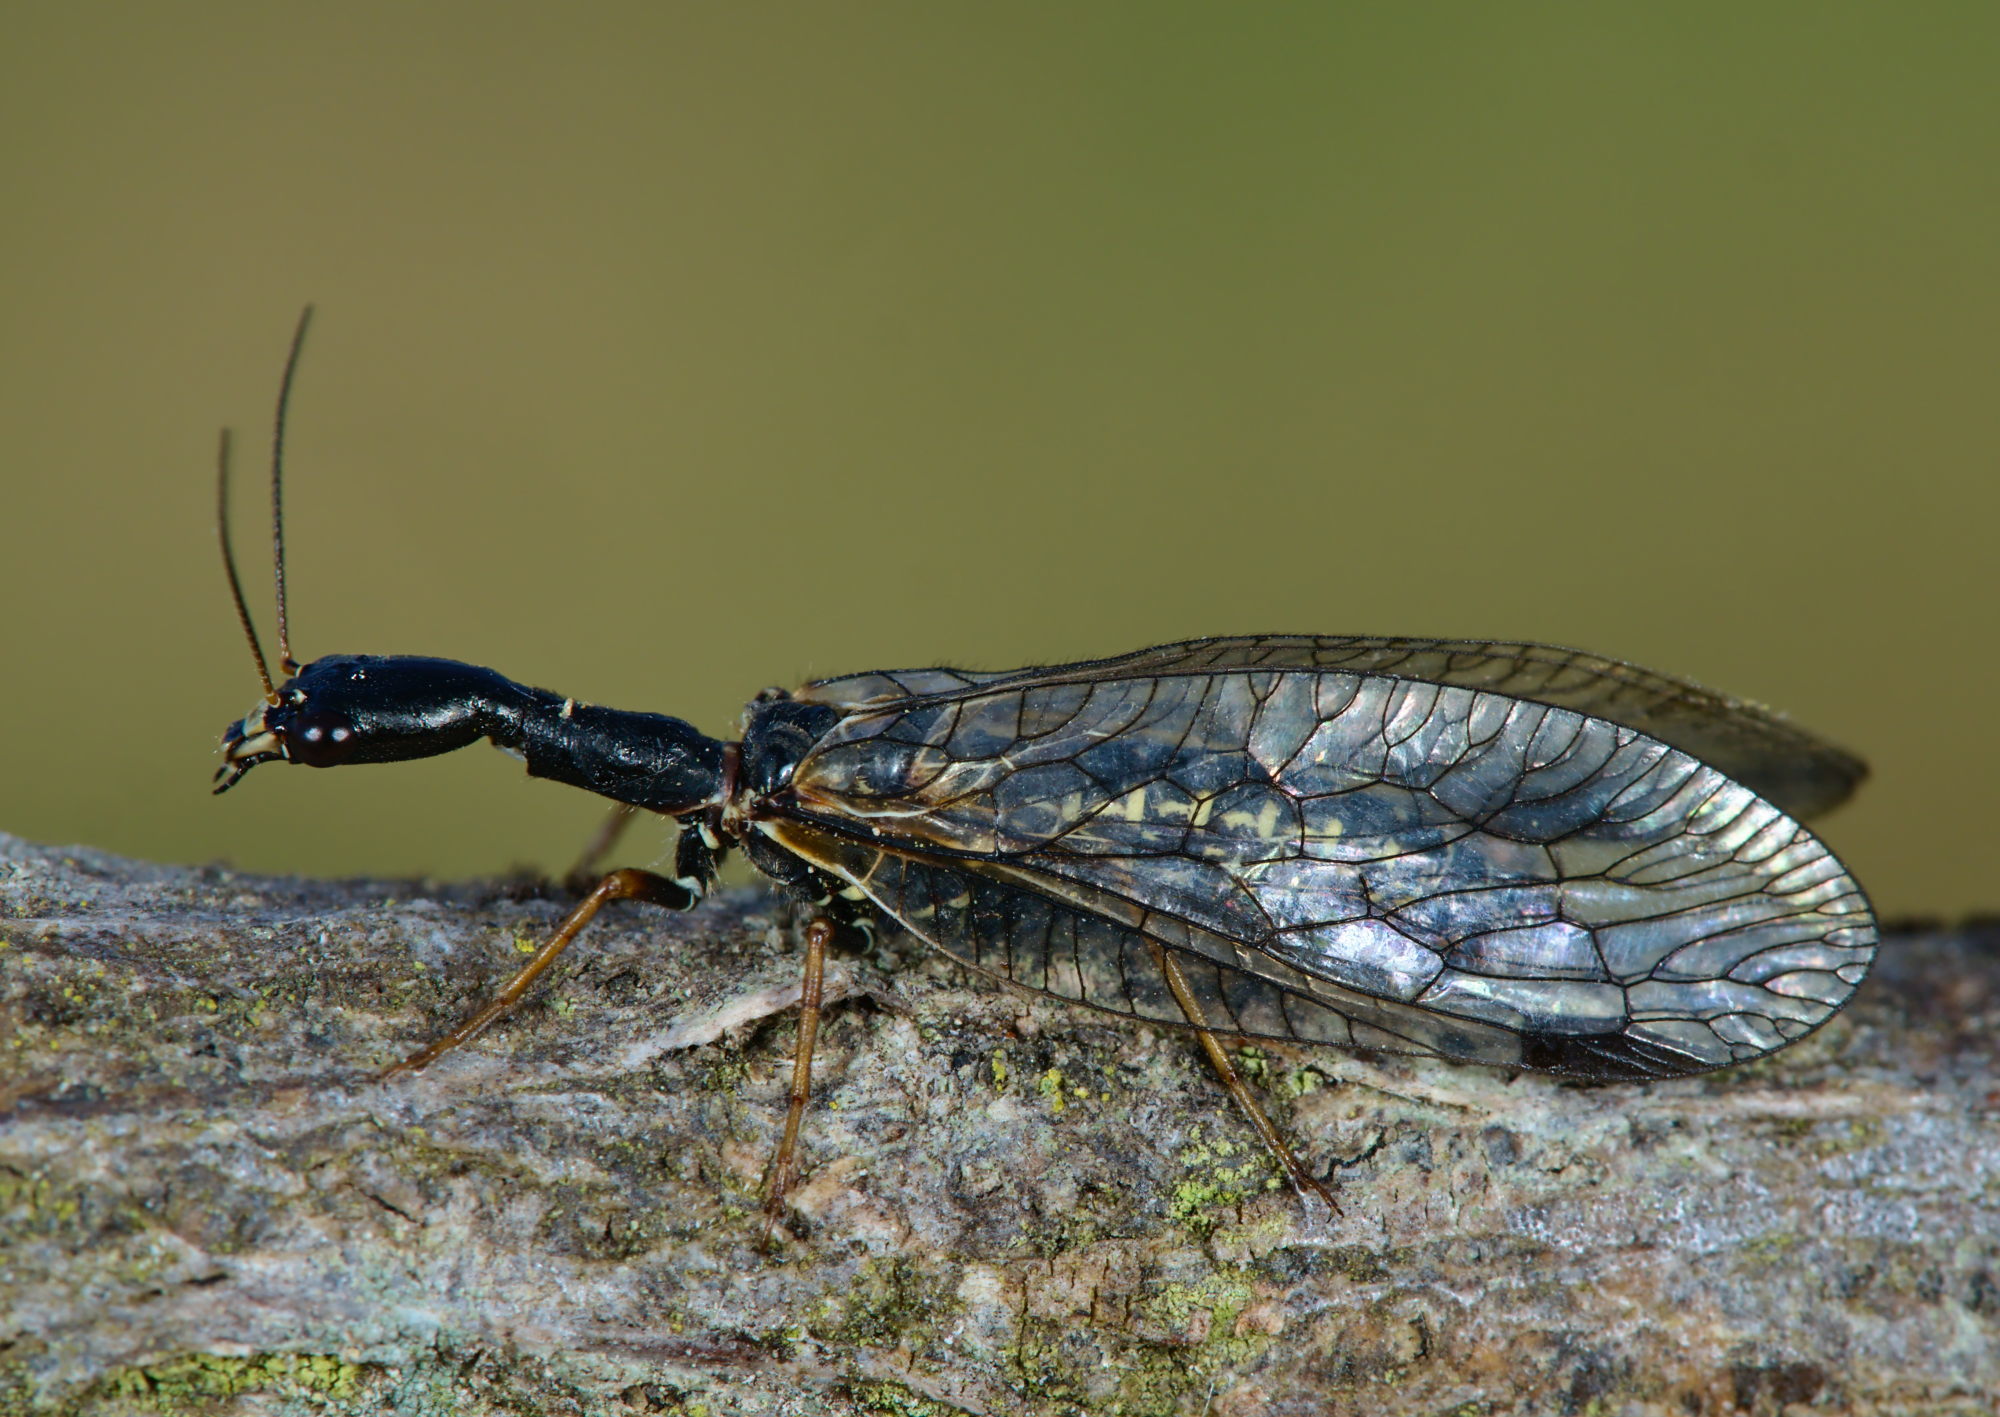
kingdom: Animalia
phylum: Arthropoda
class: Insecta
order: Raphidioptera
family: Raphidiidae
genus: Phaeostigma
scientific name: Phaeostigma notatum
